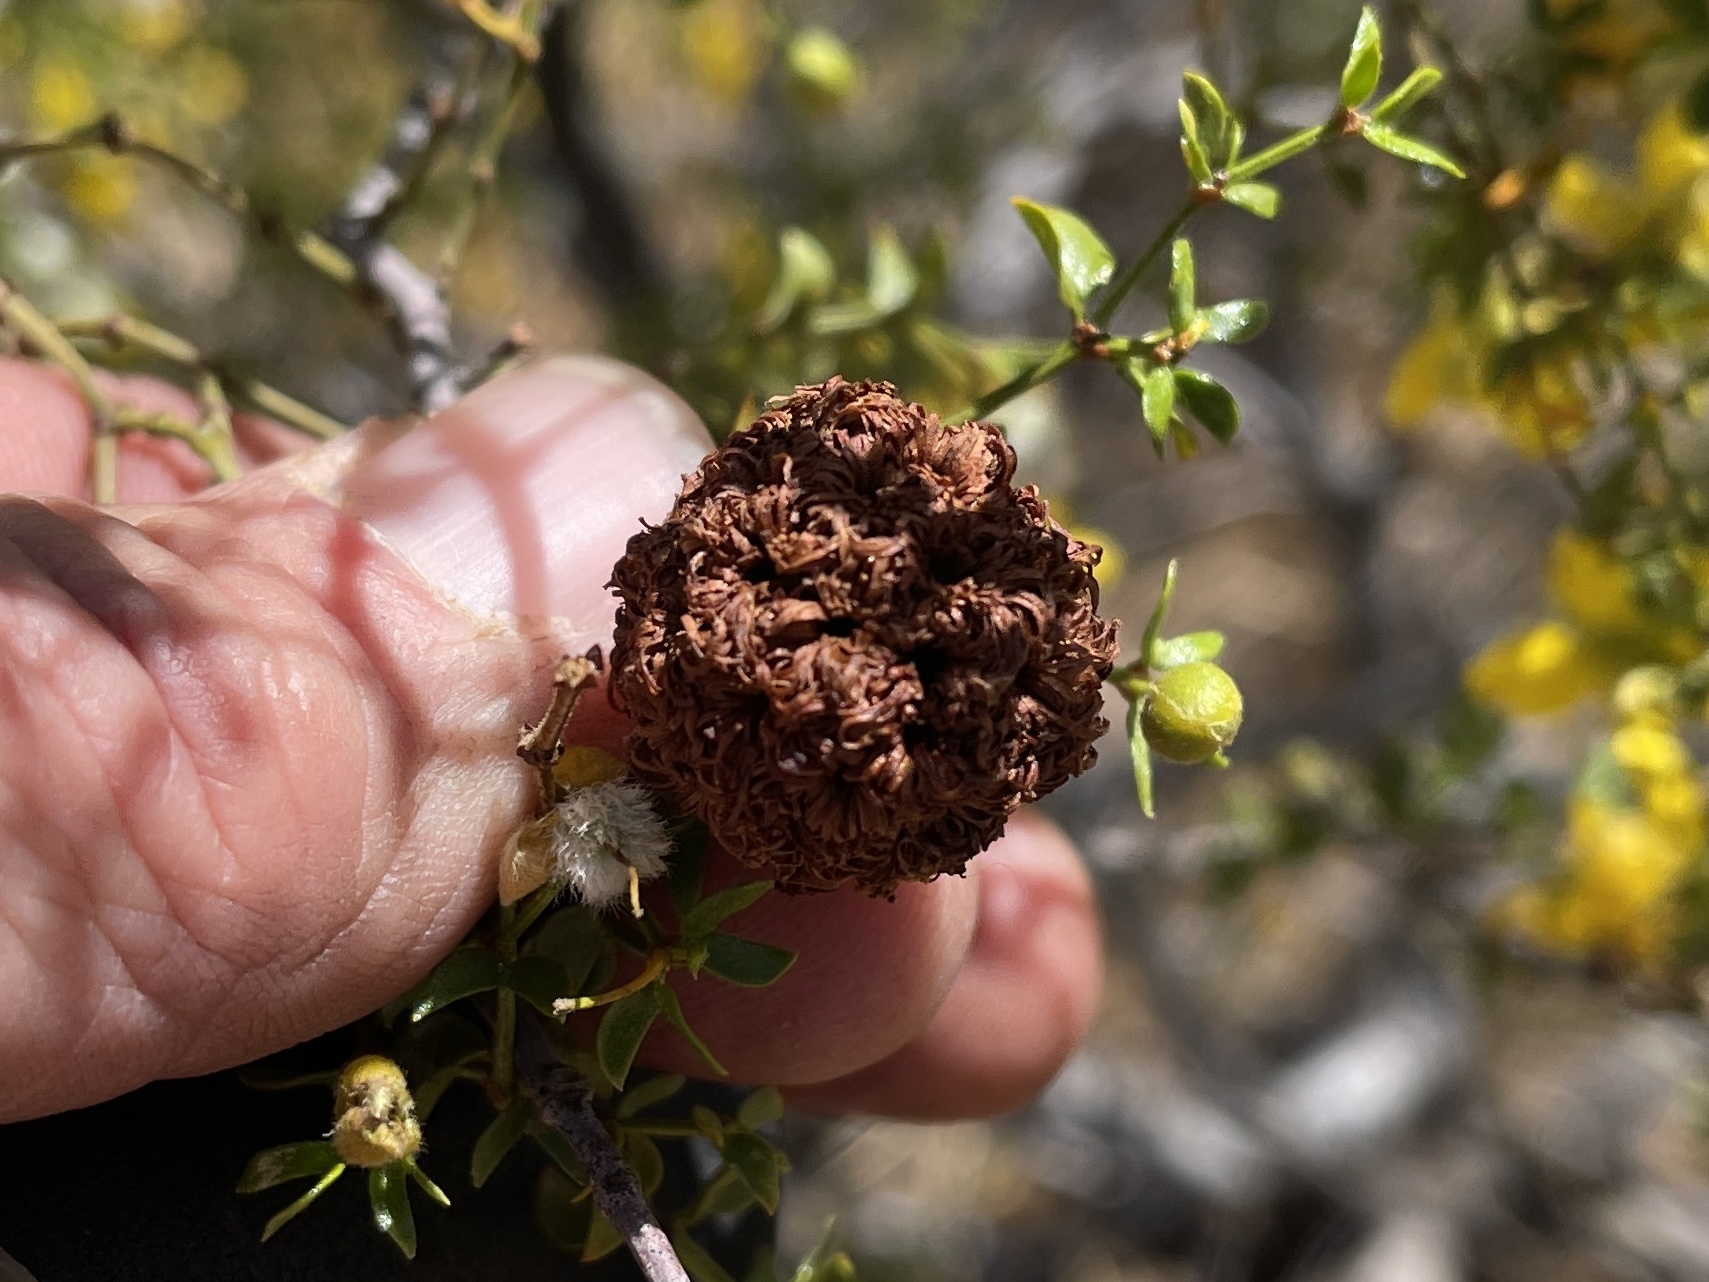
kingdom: Animalia
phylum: Arthropoda
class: Insecta
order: Diptera
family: Cecidomyiidae
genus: Asphondylia
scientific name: Asphondylia auripila
